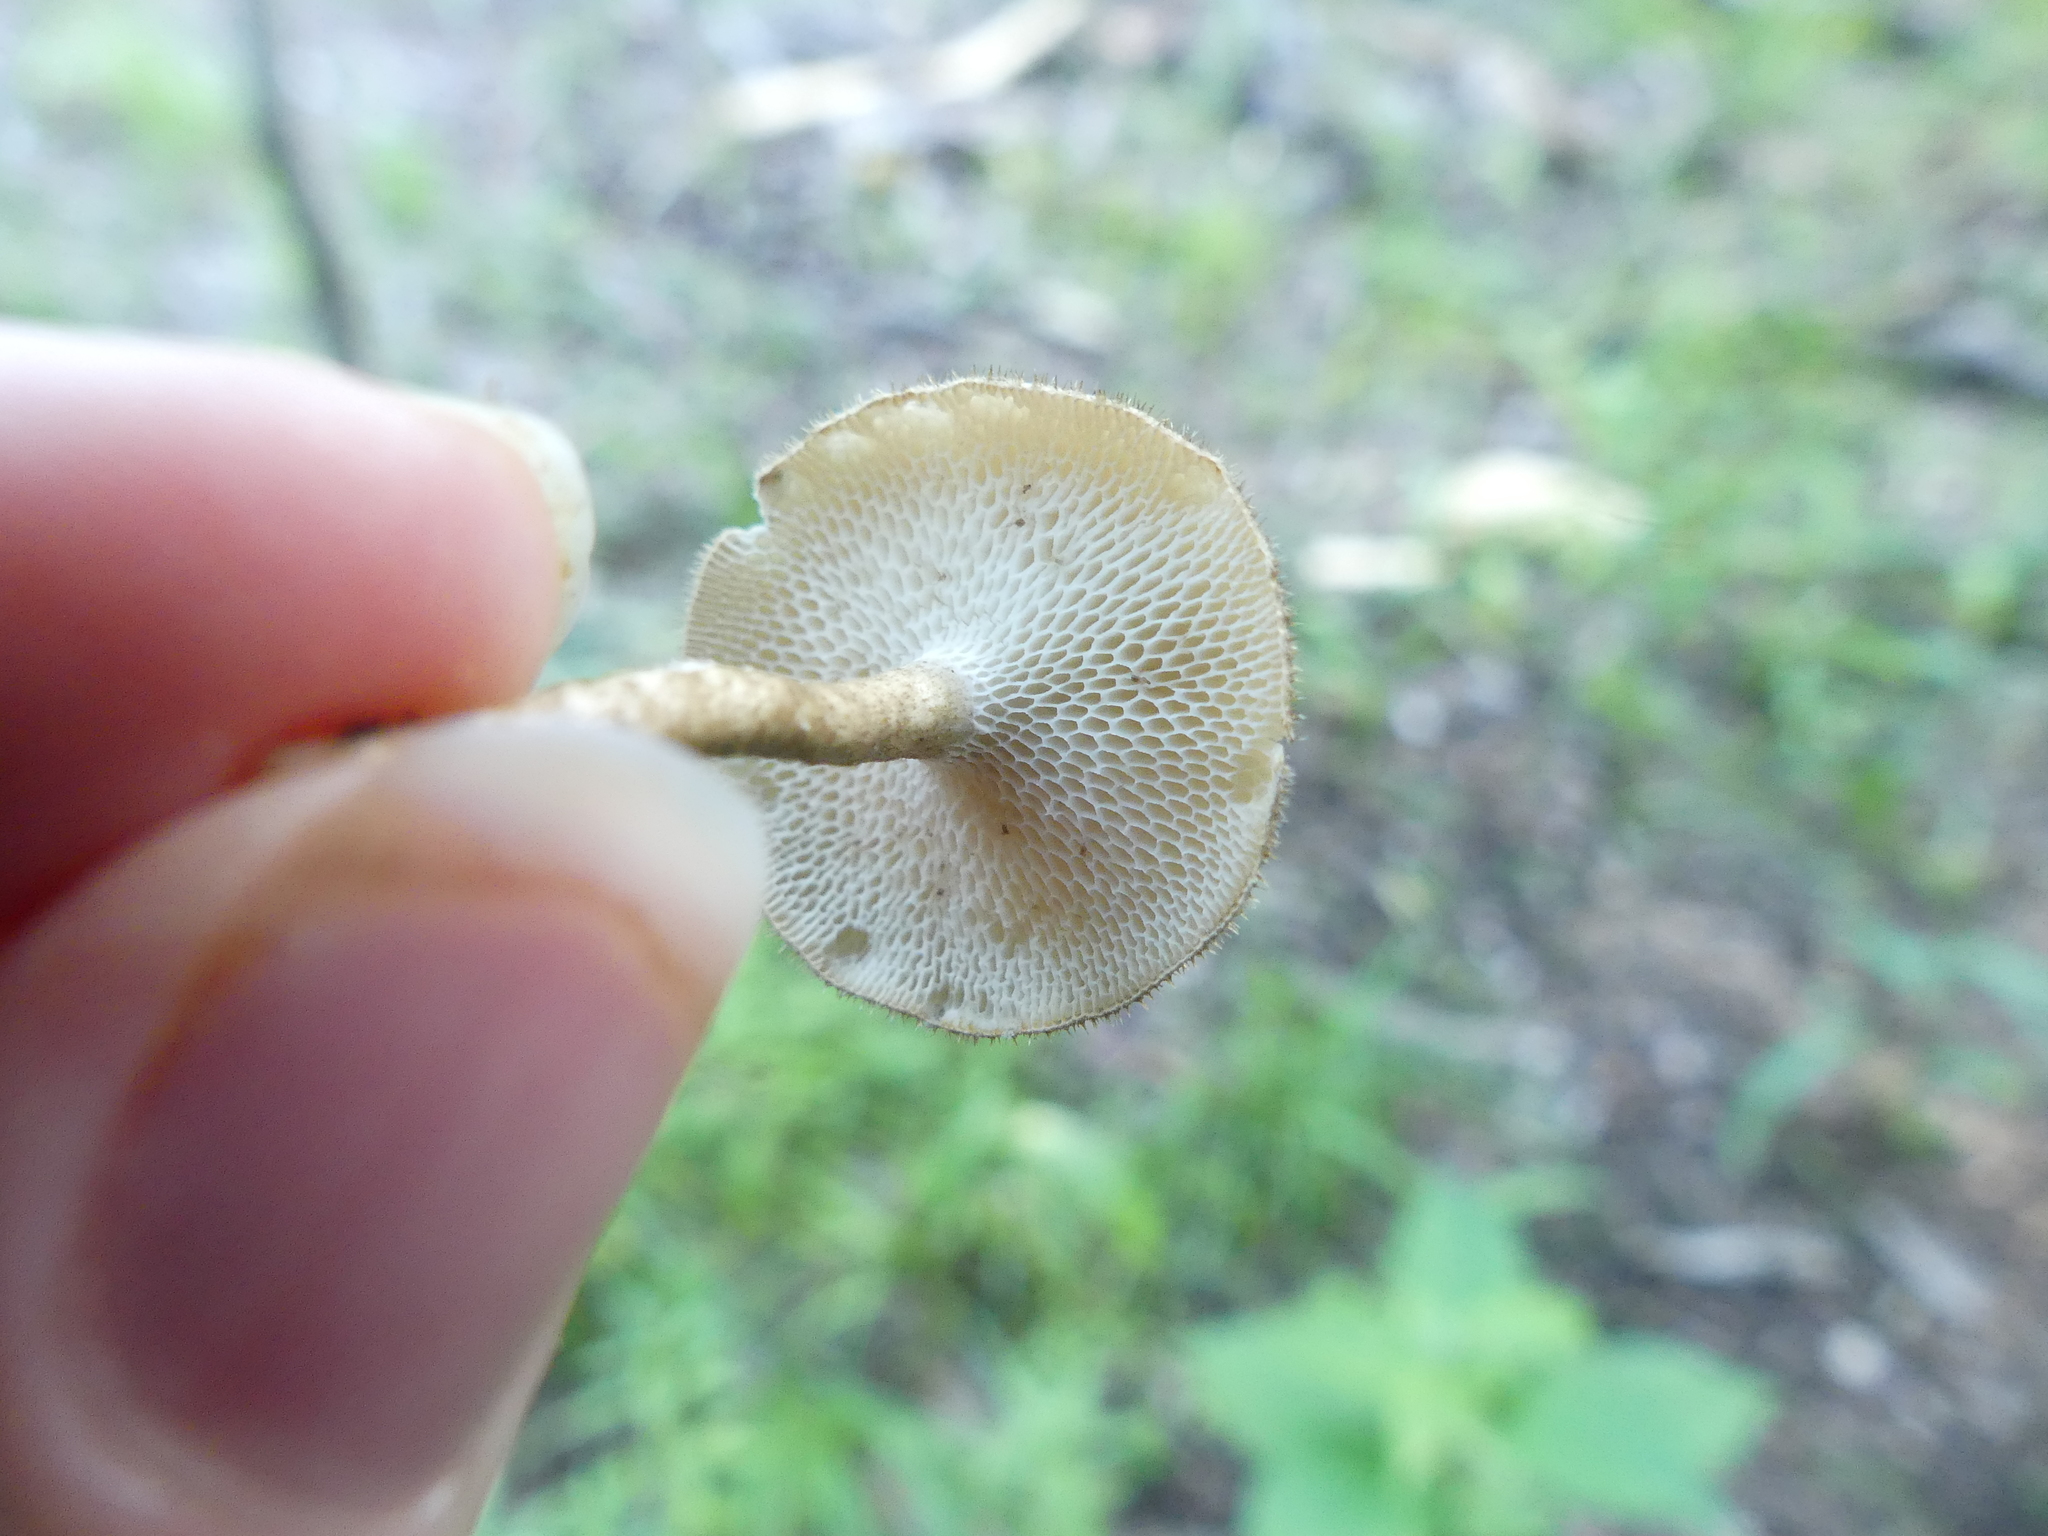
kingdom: Fungi
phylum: Basidiomycota
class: Agaricomycetes
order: Polyporales
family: Polyporaceae
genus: Lentinus
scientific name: Lentinus arcularius
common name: Spring polypore
